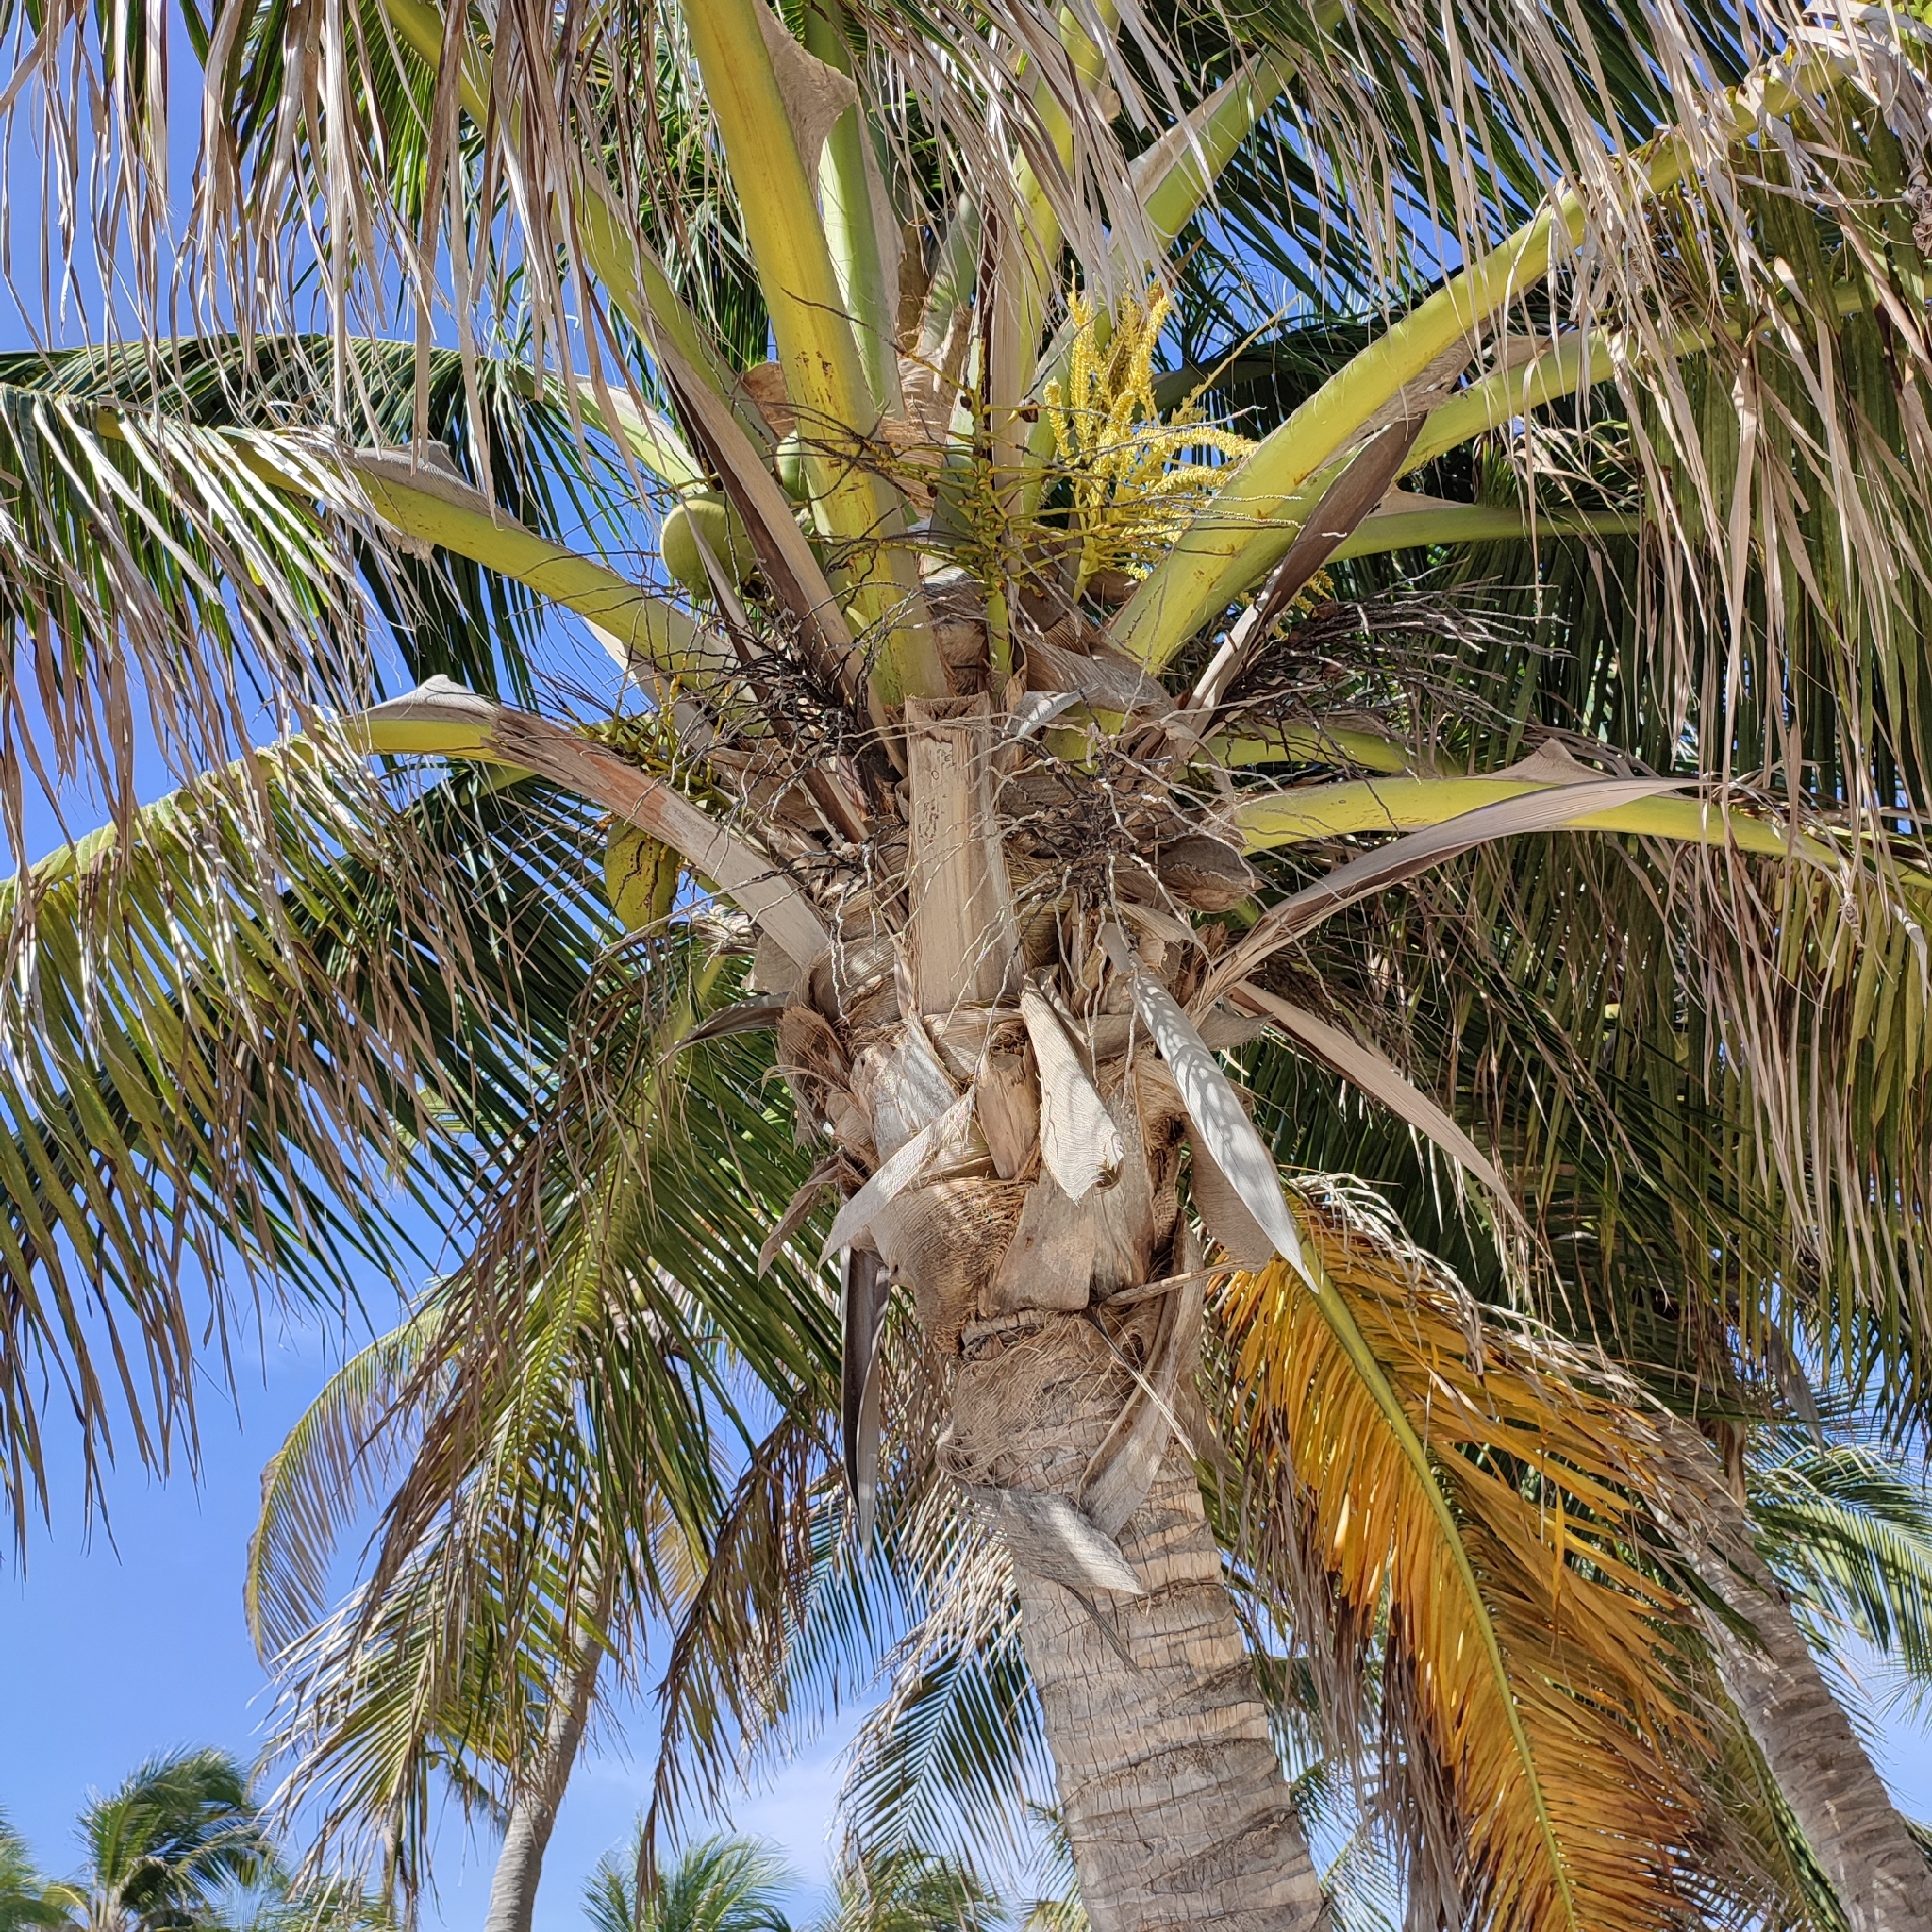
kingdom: Plantae
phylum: Tracheophyta
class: Liliopsida
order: Arecales
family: Arecaceae
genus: Cocos
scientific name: Cocos nucifera
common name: Coconut palm
